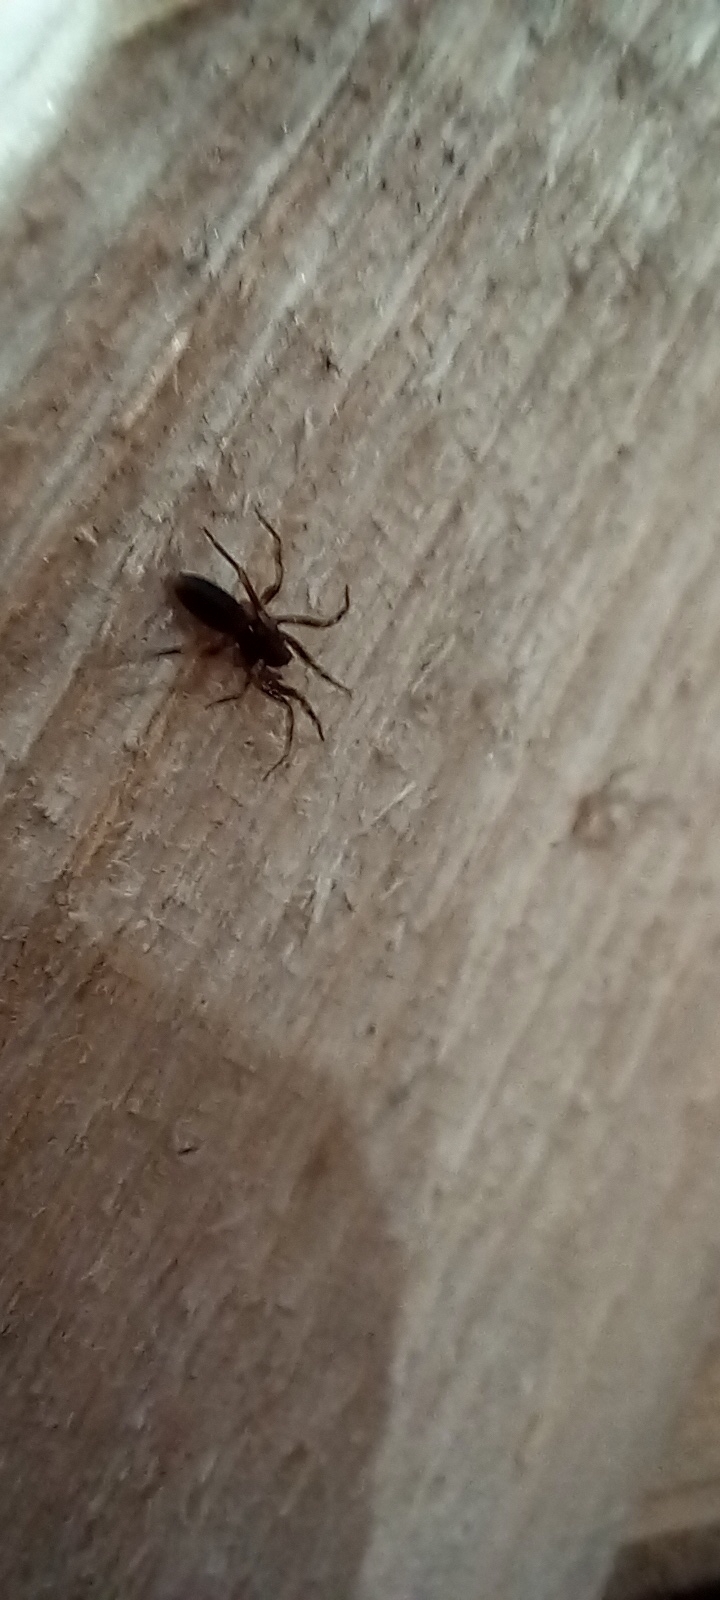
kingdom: Animalia
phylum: Arthropoda
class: Arachnida
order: Araneae
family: Dysderidae
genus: Harpactea
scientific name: Harpactea hombergi
